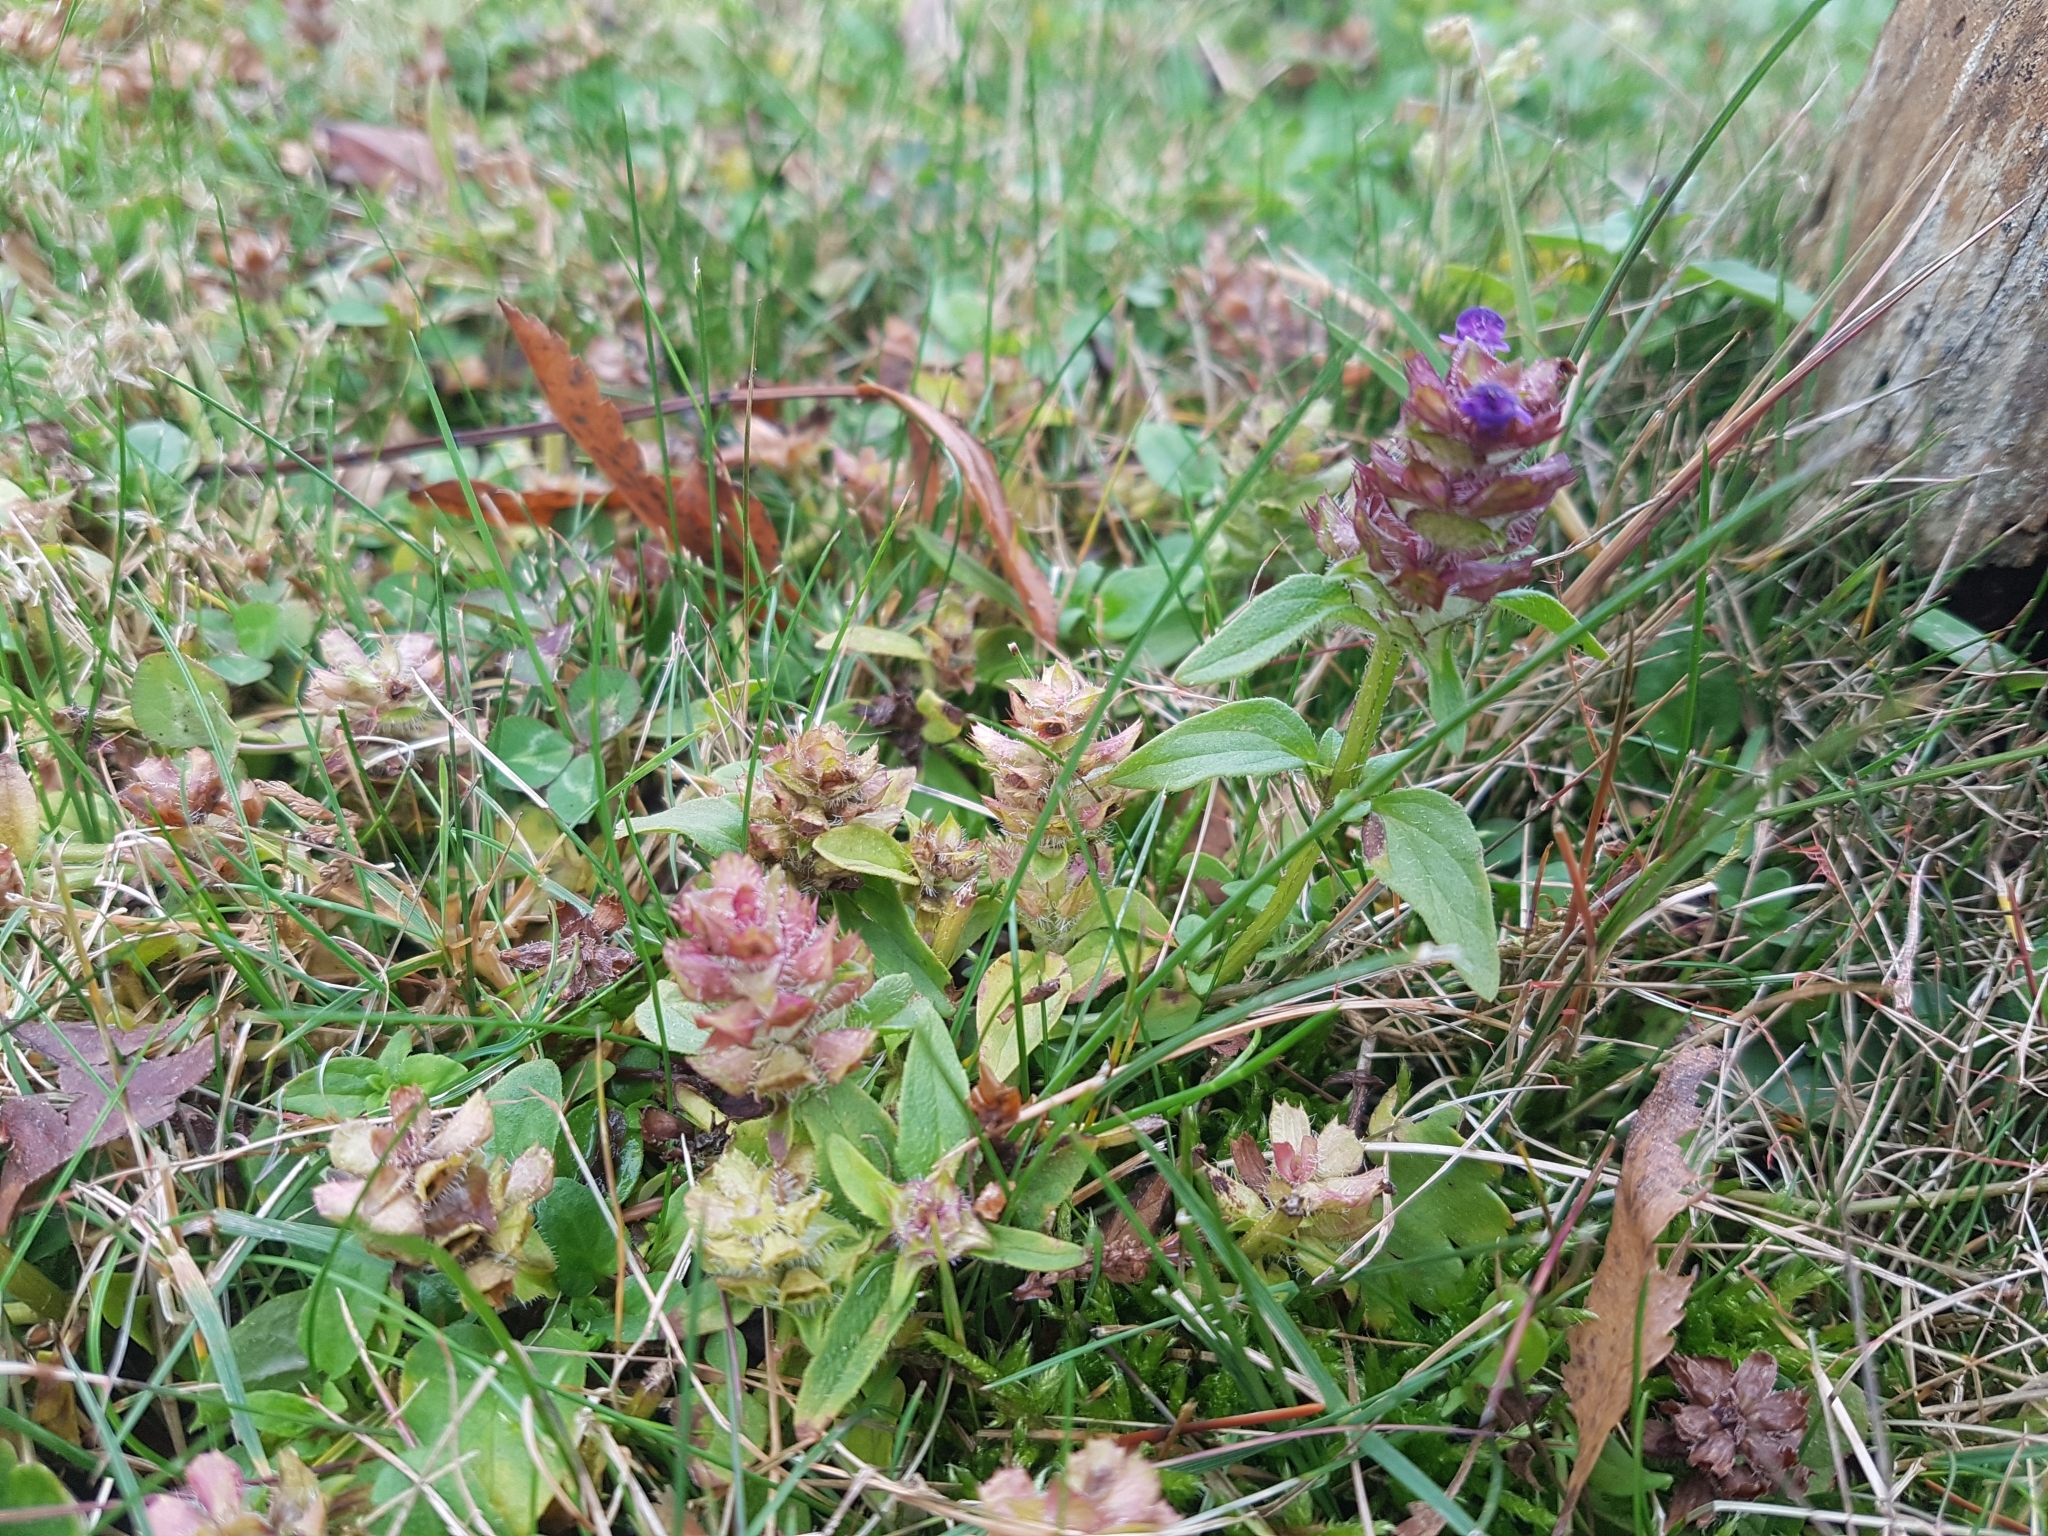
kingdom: Plantae
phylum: Tracheophyta
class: Magnoliopsida
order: Lamiales
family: Lamiaceae
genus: Prunella
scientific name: Prunella vulgaris
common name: Heal-all
